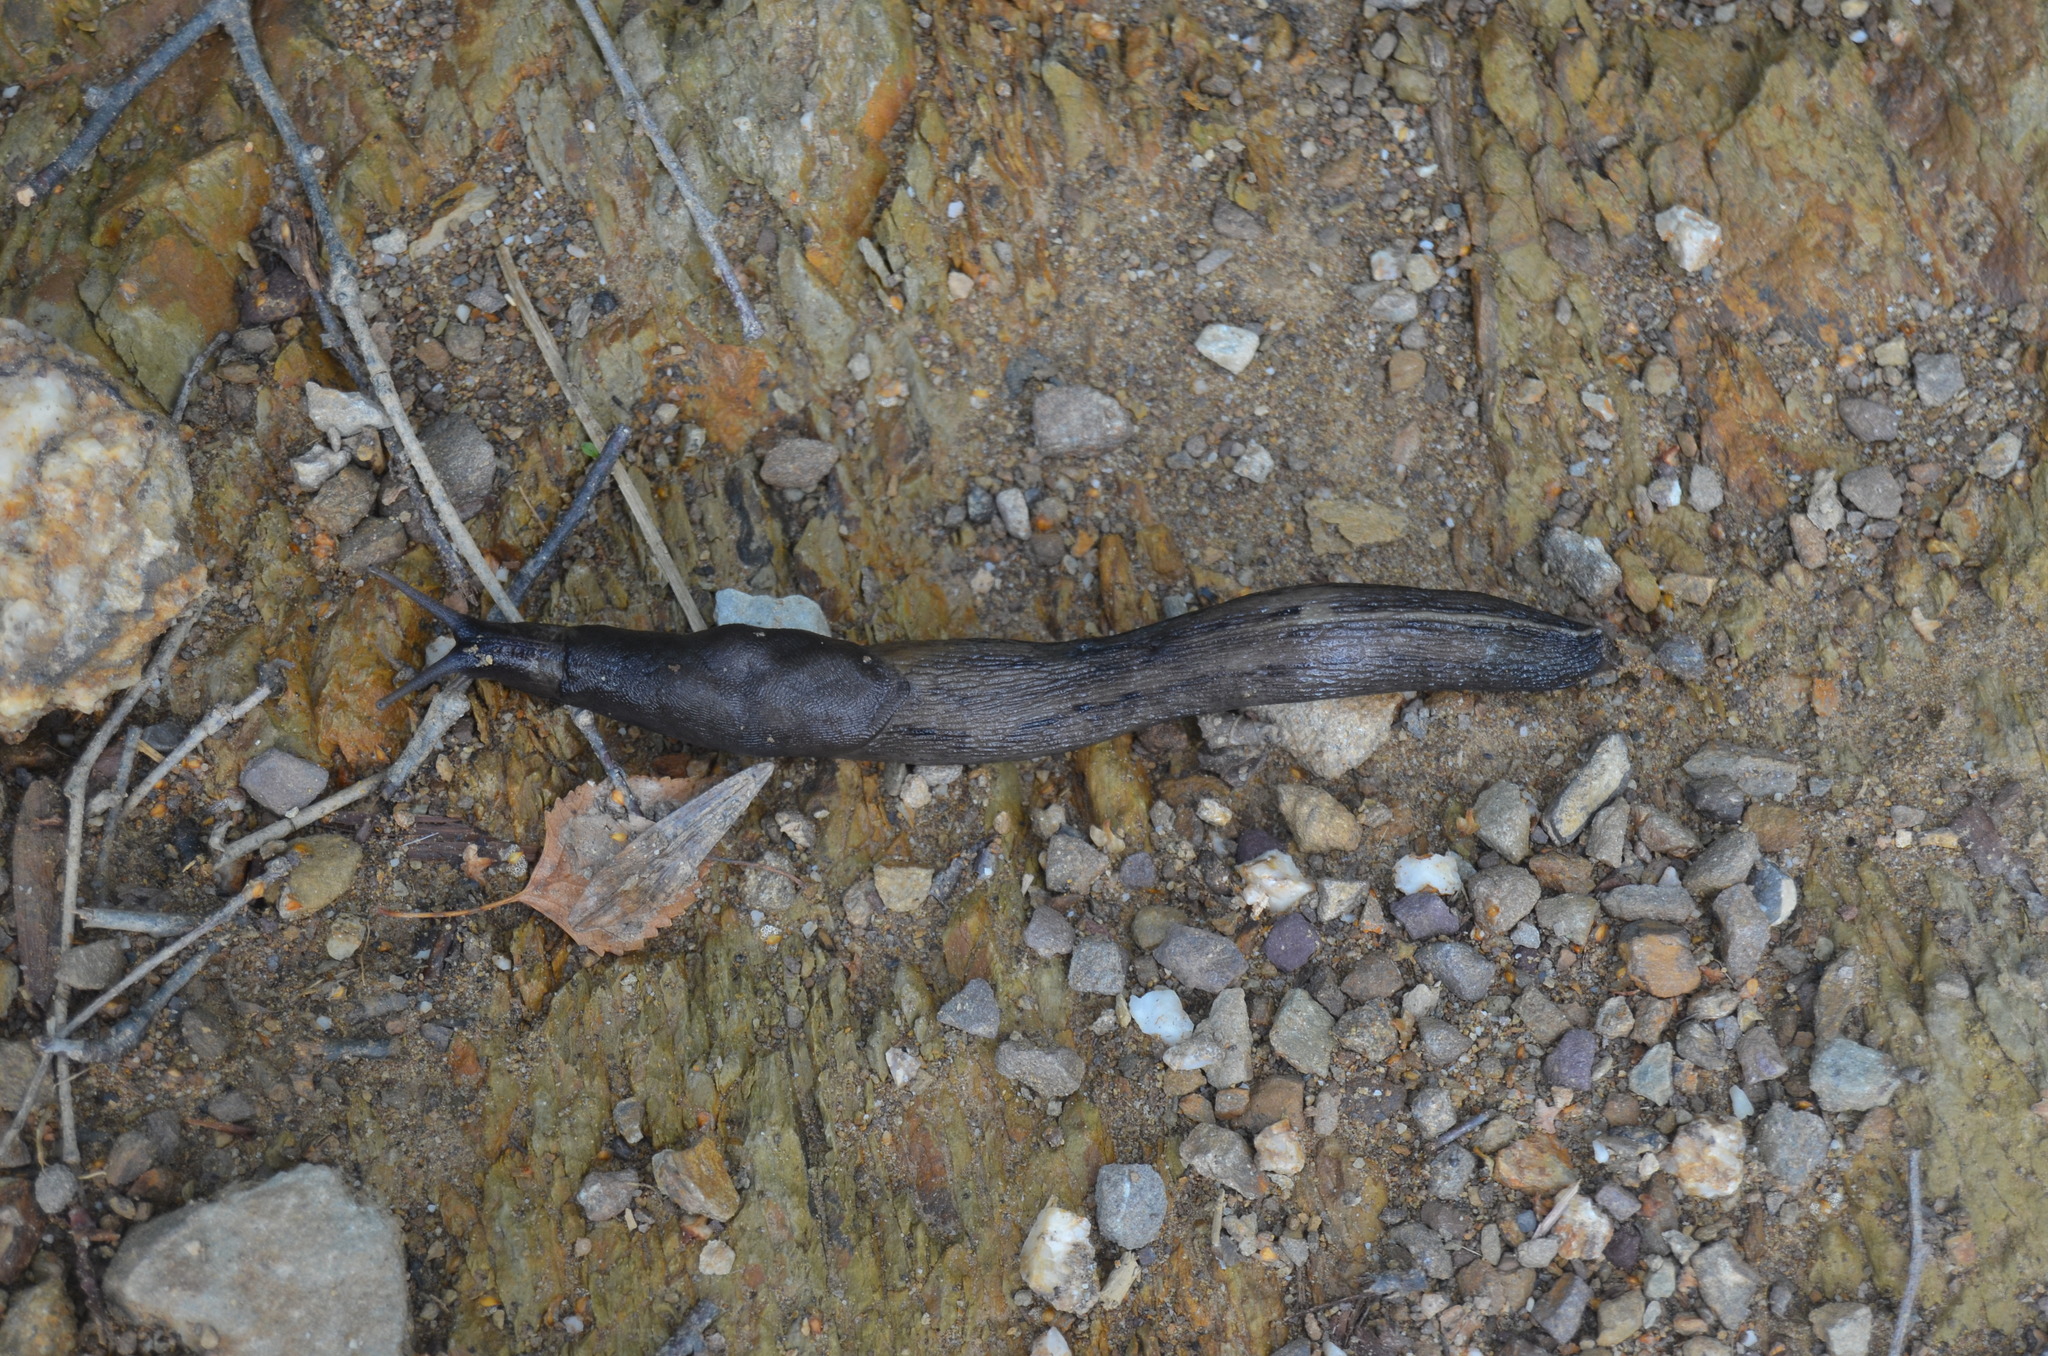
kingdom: Animalia
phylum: Mollusca
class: Gastropoda
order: Stylommatophora
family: Limacidae
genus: Limax
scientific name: Limax cinereoniger
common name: Ash-black slug
